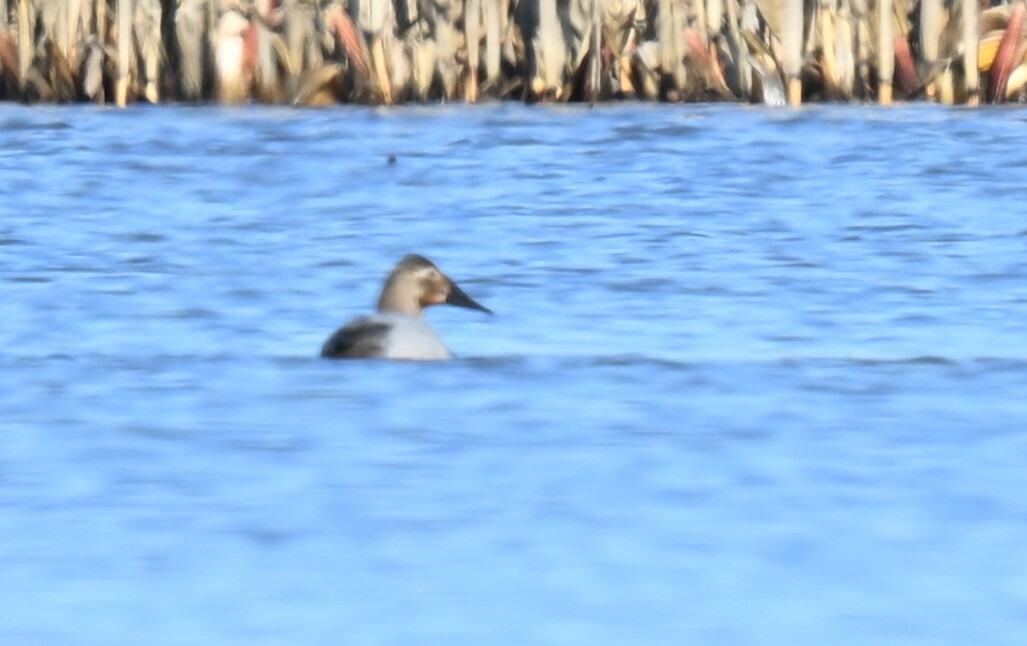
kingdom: Animalia
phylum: Chordata
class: Aves
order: Anseriformes
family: Anatidae
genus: Aythya
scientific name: Aythya valisineria
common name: Canvasback
